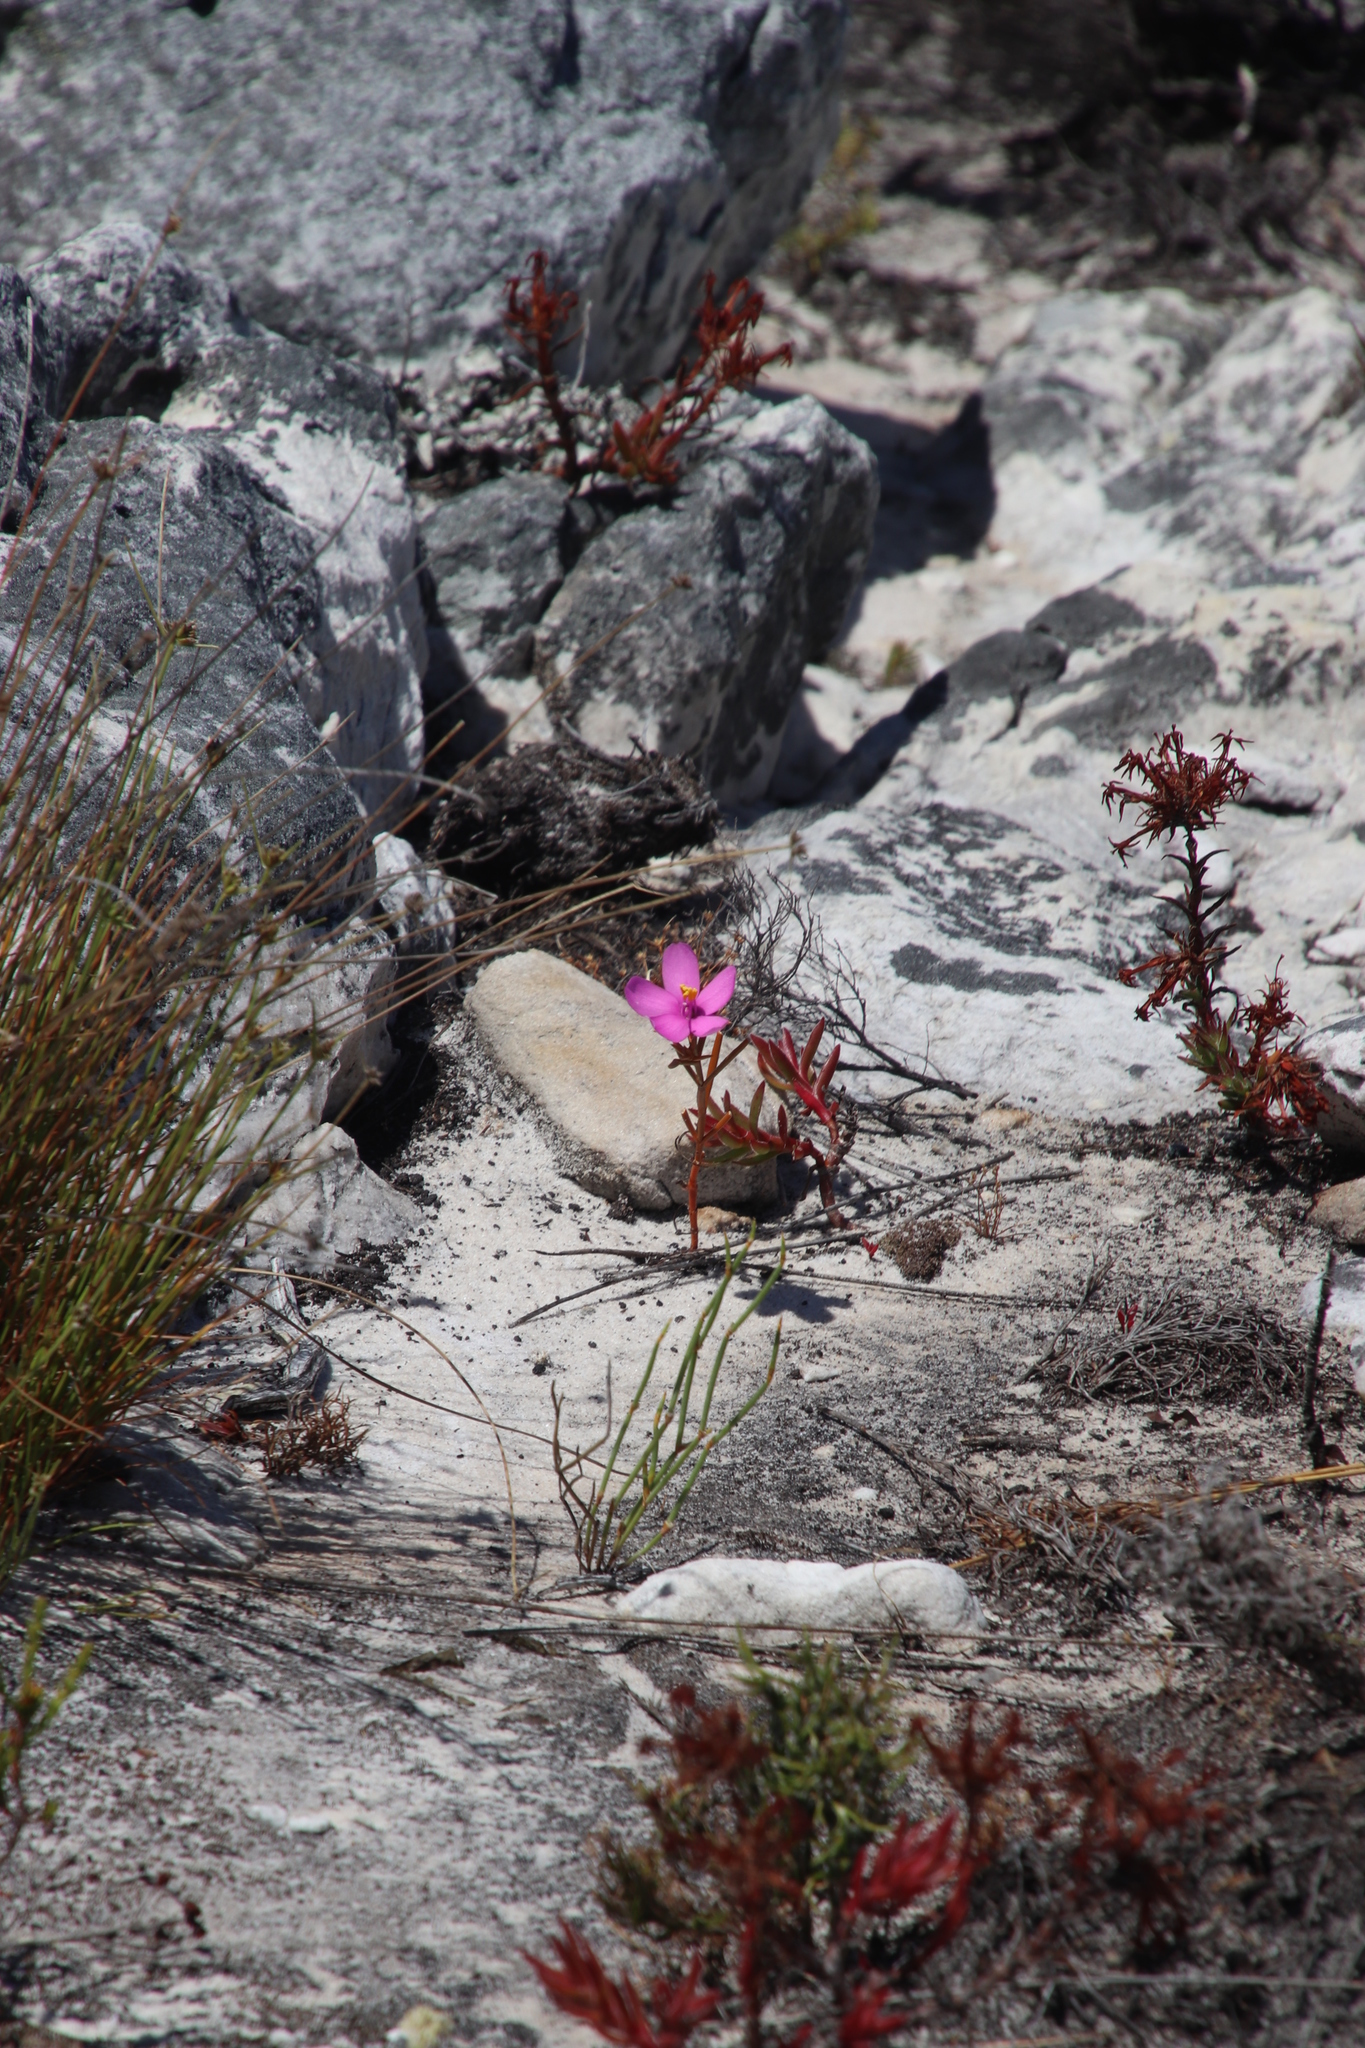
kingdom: Plantae
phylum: Tracheophyta
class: Magnoliopsida
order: Gentianales
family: Gentianaceae
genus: Chironia
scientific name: Chironia linoides
